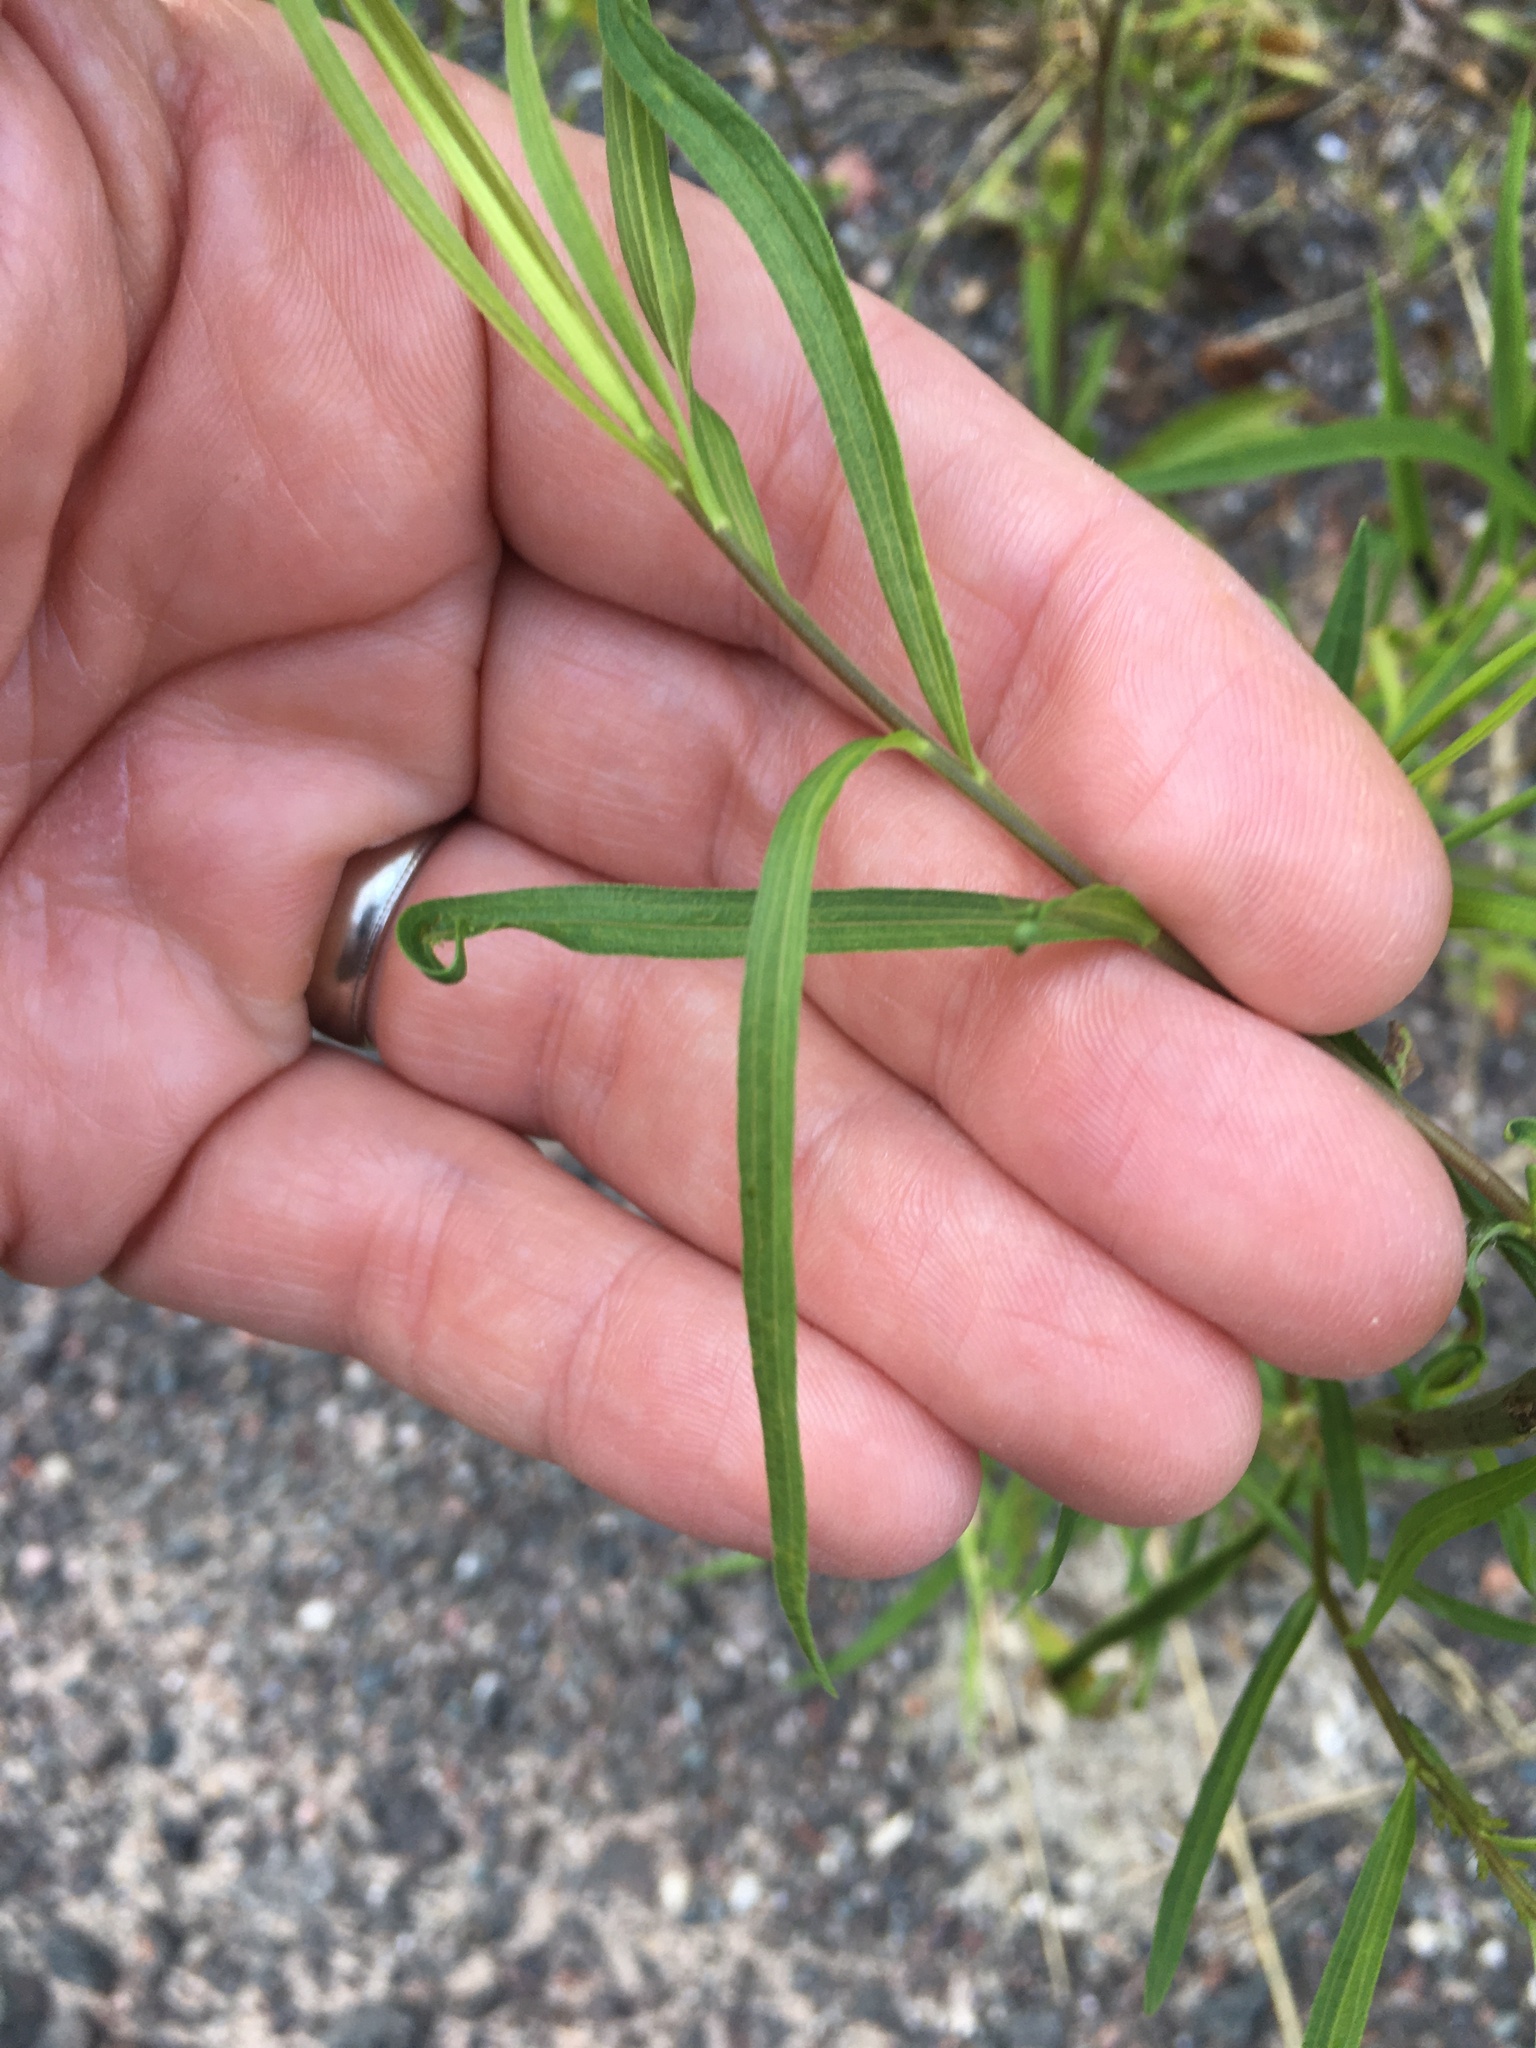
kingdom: Plantae
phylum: Tracheophyta
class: Magnoliopsida
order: Asterales
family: Asteraceae
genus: Euthamia
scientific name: Euthamia graminifolia
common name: Common goldentop
